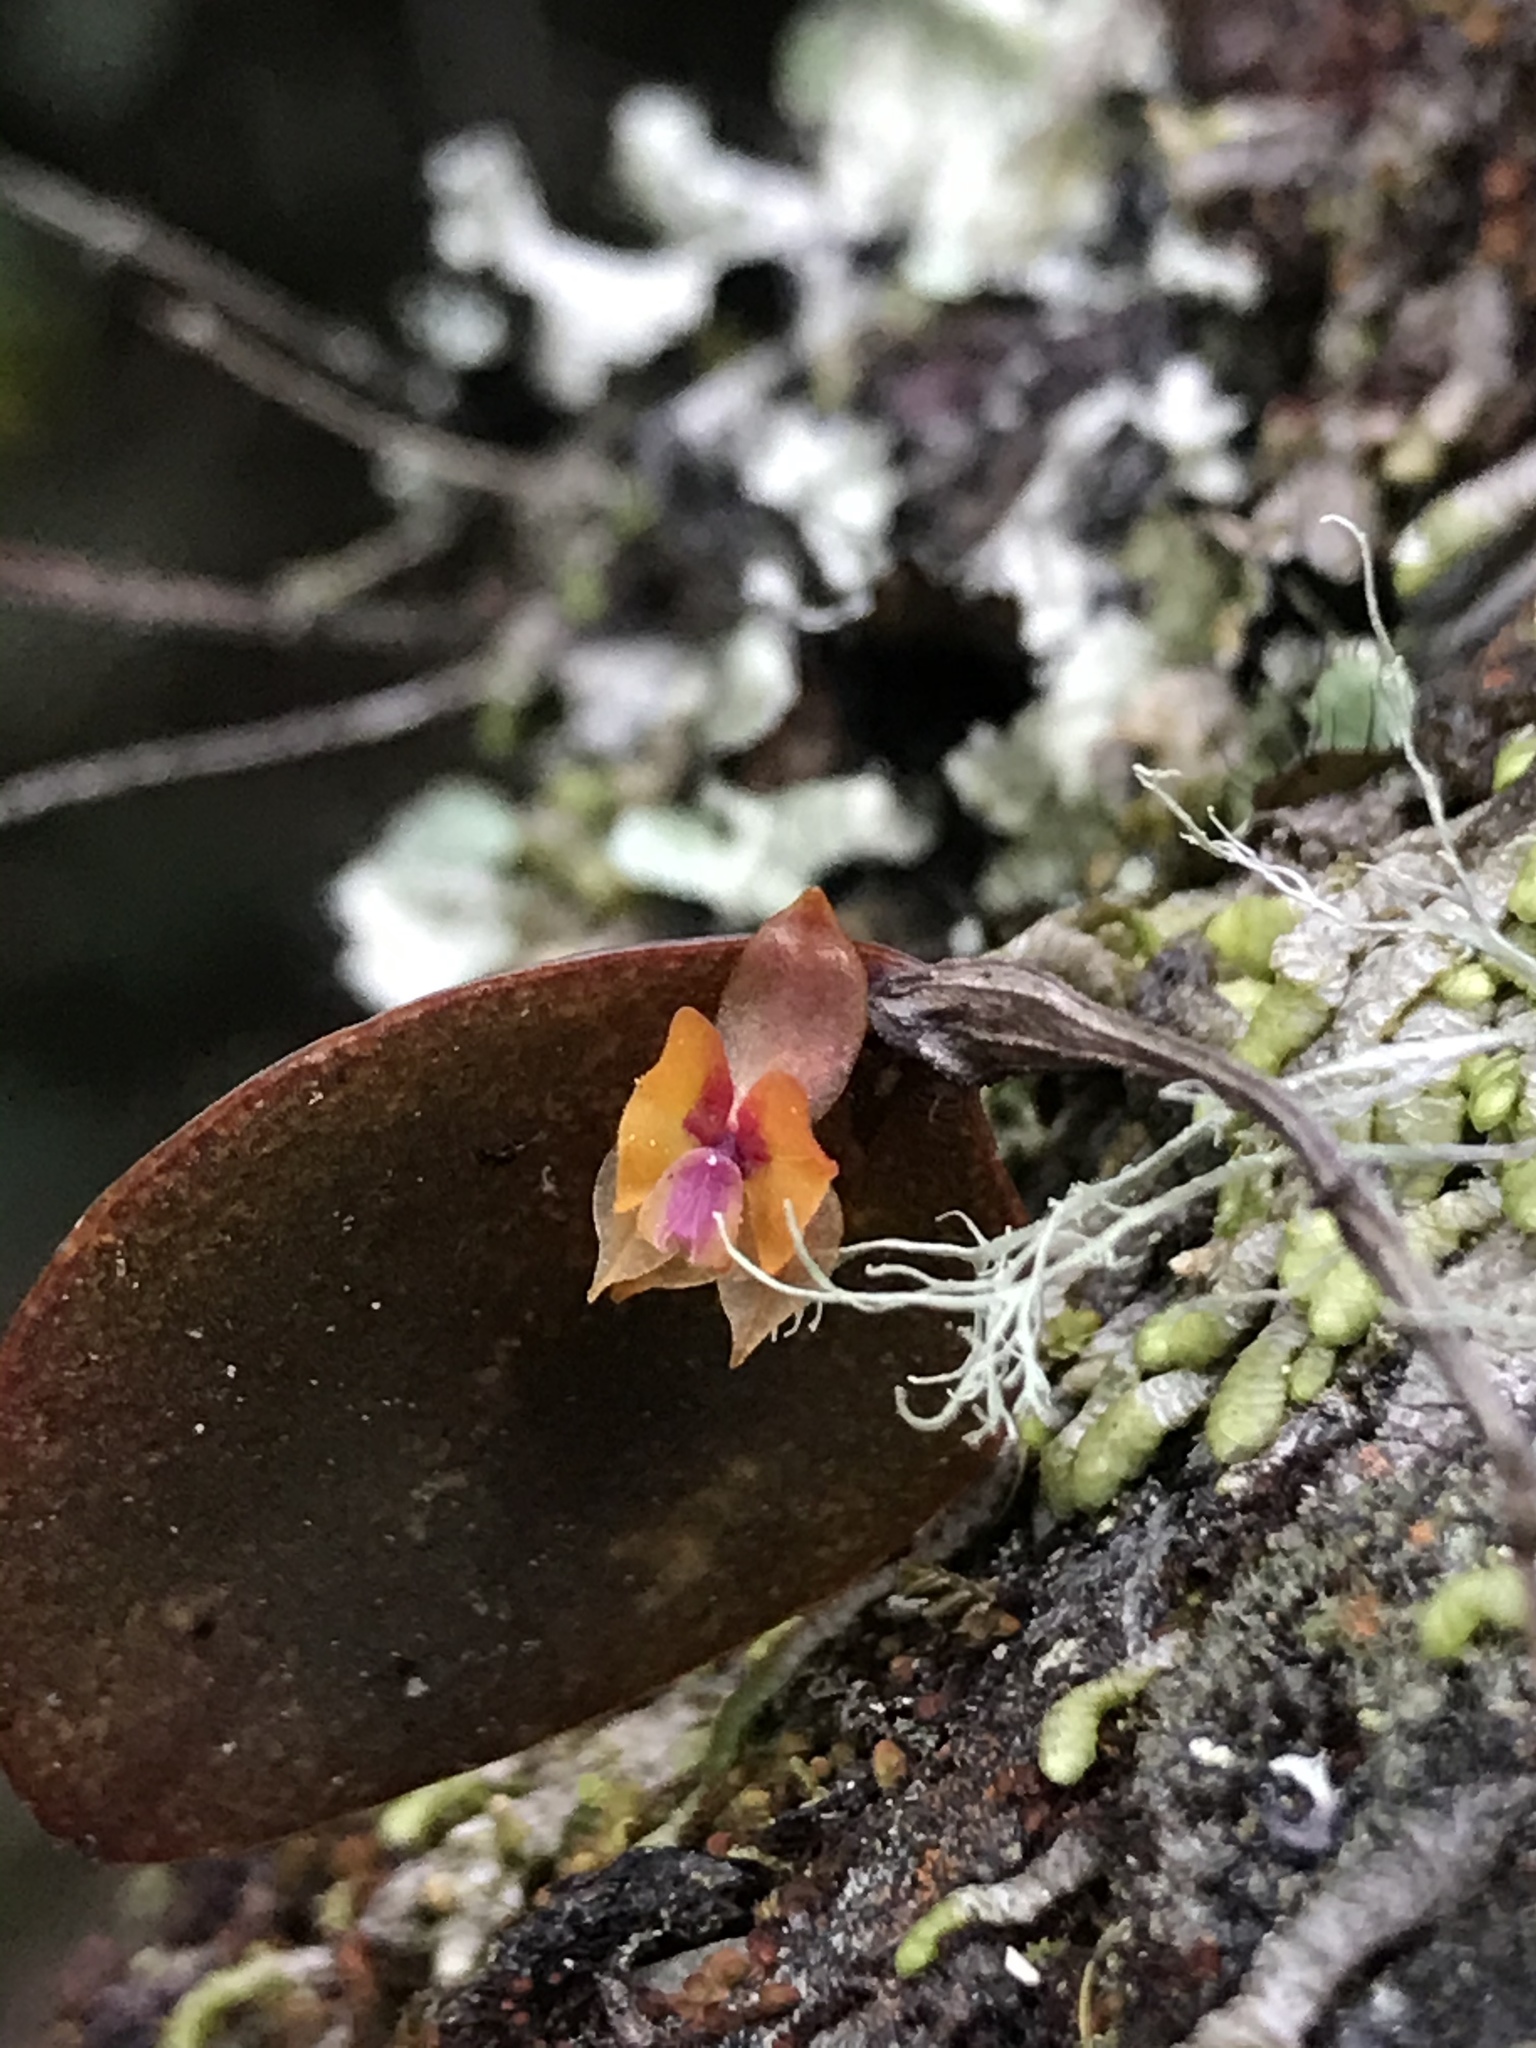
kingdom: Plantae
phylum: Tracheophyta
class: Liliopsida
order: Asparagales
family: Orchidaceae
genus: Lepanthes
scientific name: Lepanthes wageneri
